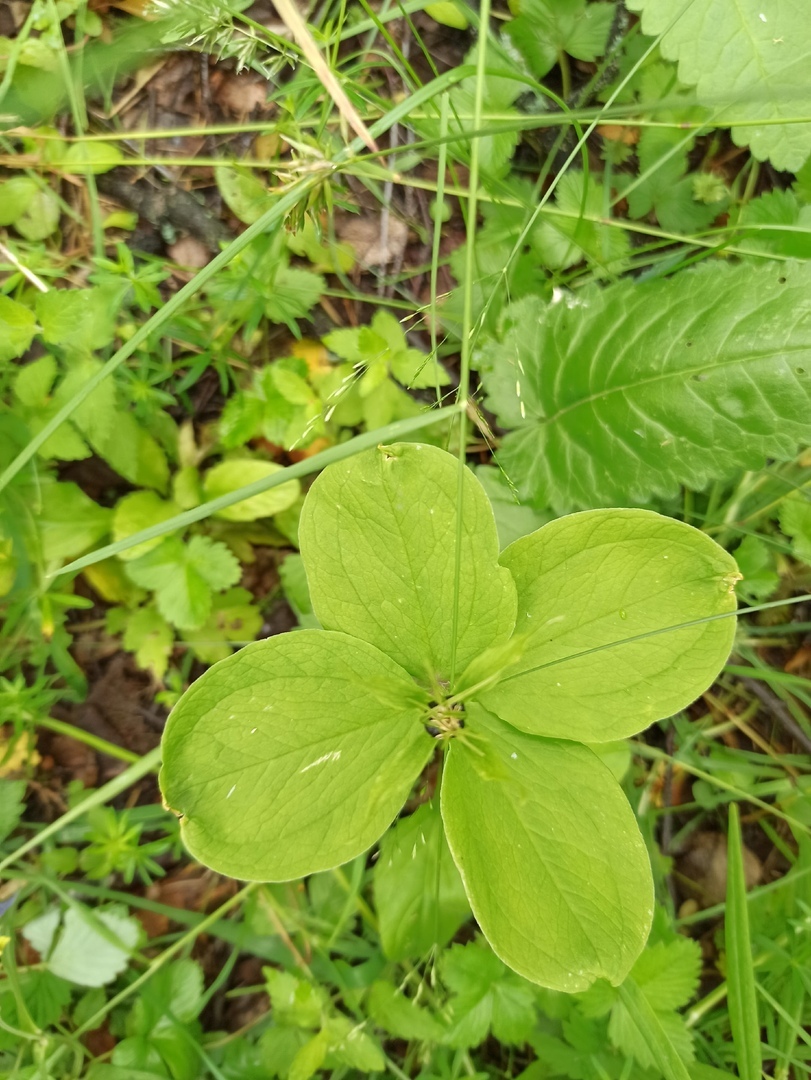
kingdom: Plantae
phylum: Tracheophyta
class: Liliopsida
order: Liliales
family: Melanthiaceae
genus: Paris
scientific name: Paris quadrifolia
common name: Herb-paris
